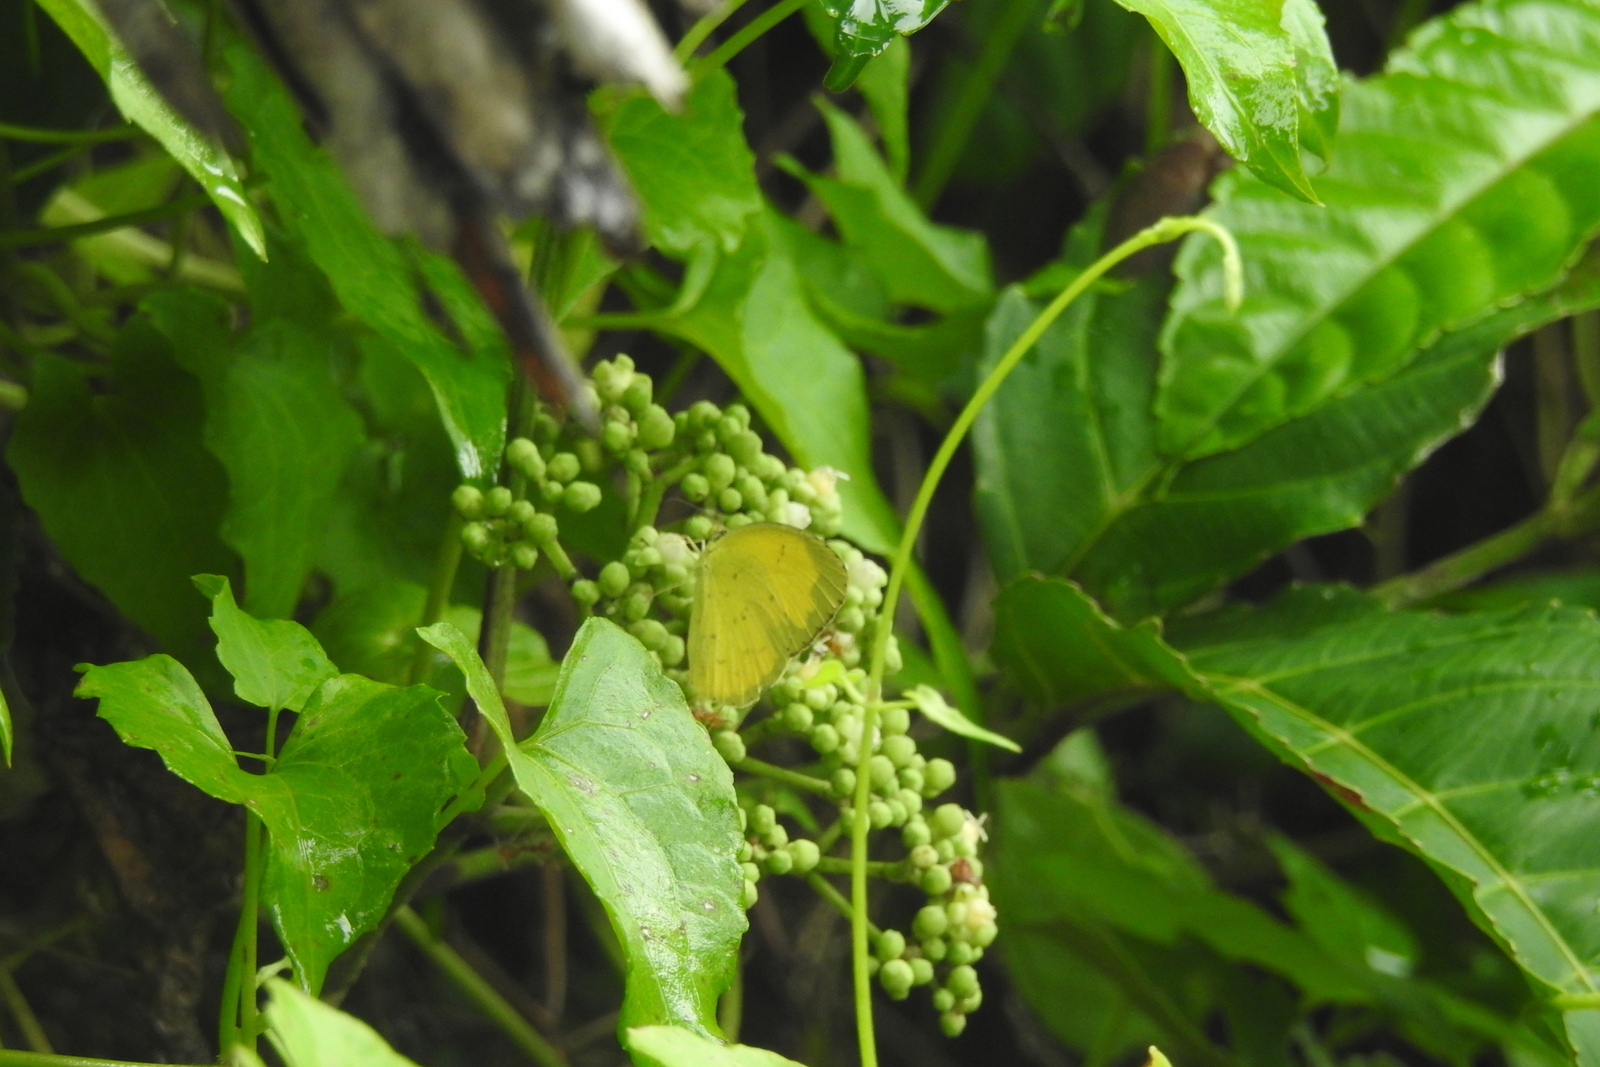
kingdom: Animalia
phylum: Arthropoda
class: Insecta
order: Lepidoptera
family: Pieridae
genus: Eurema
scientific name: Eurema hecabe
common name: Pale grass yellow
